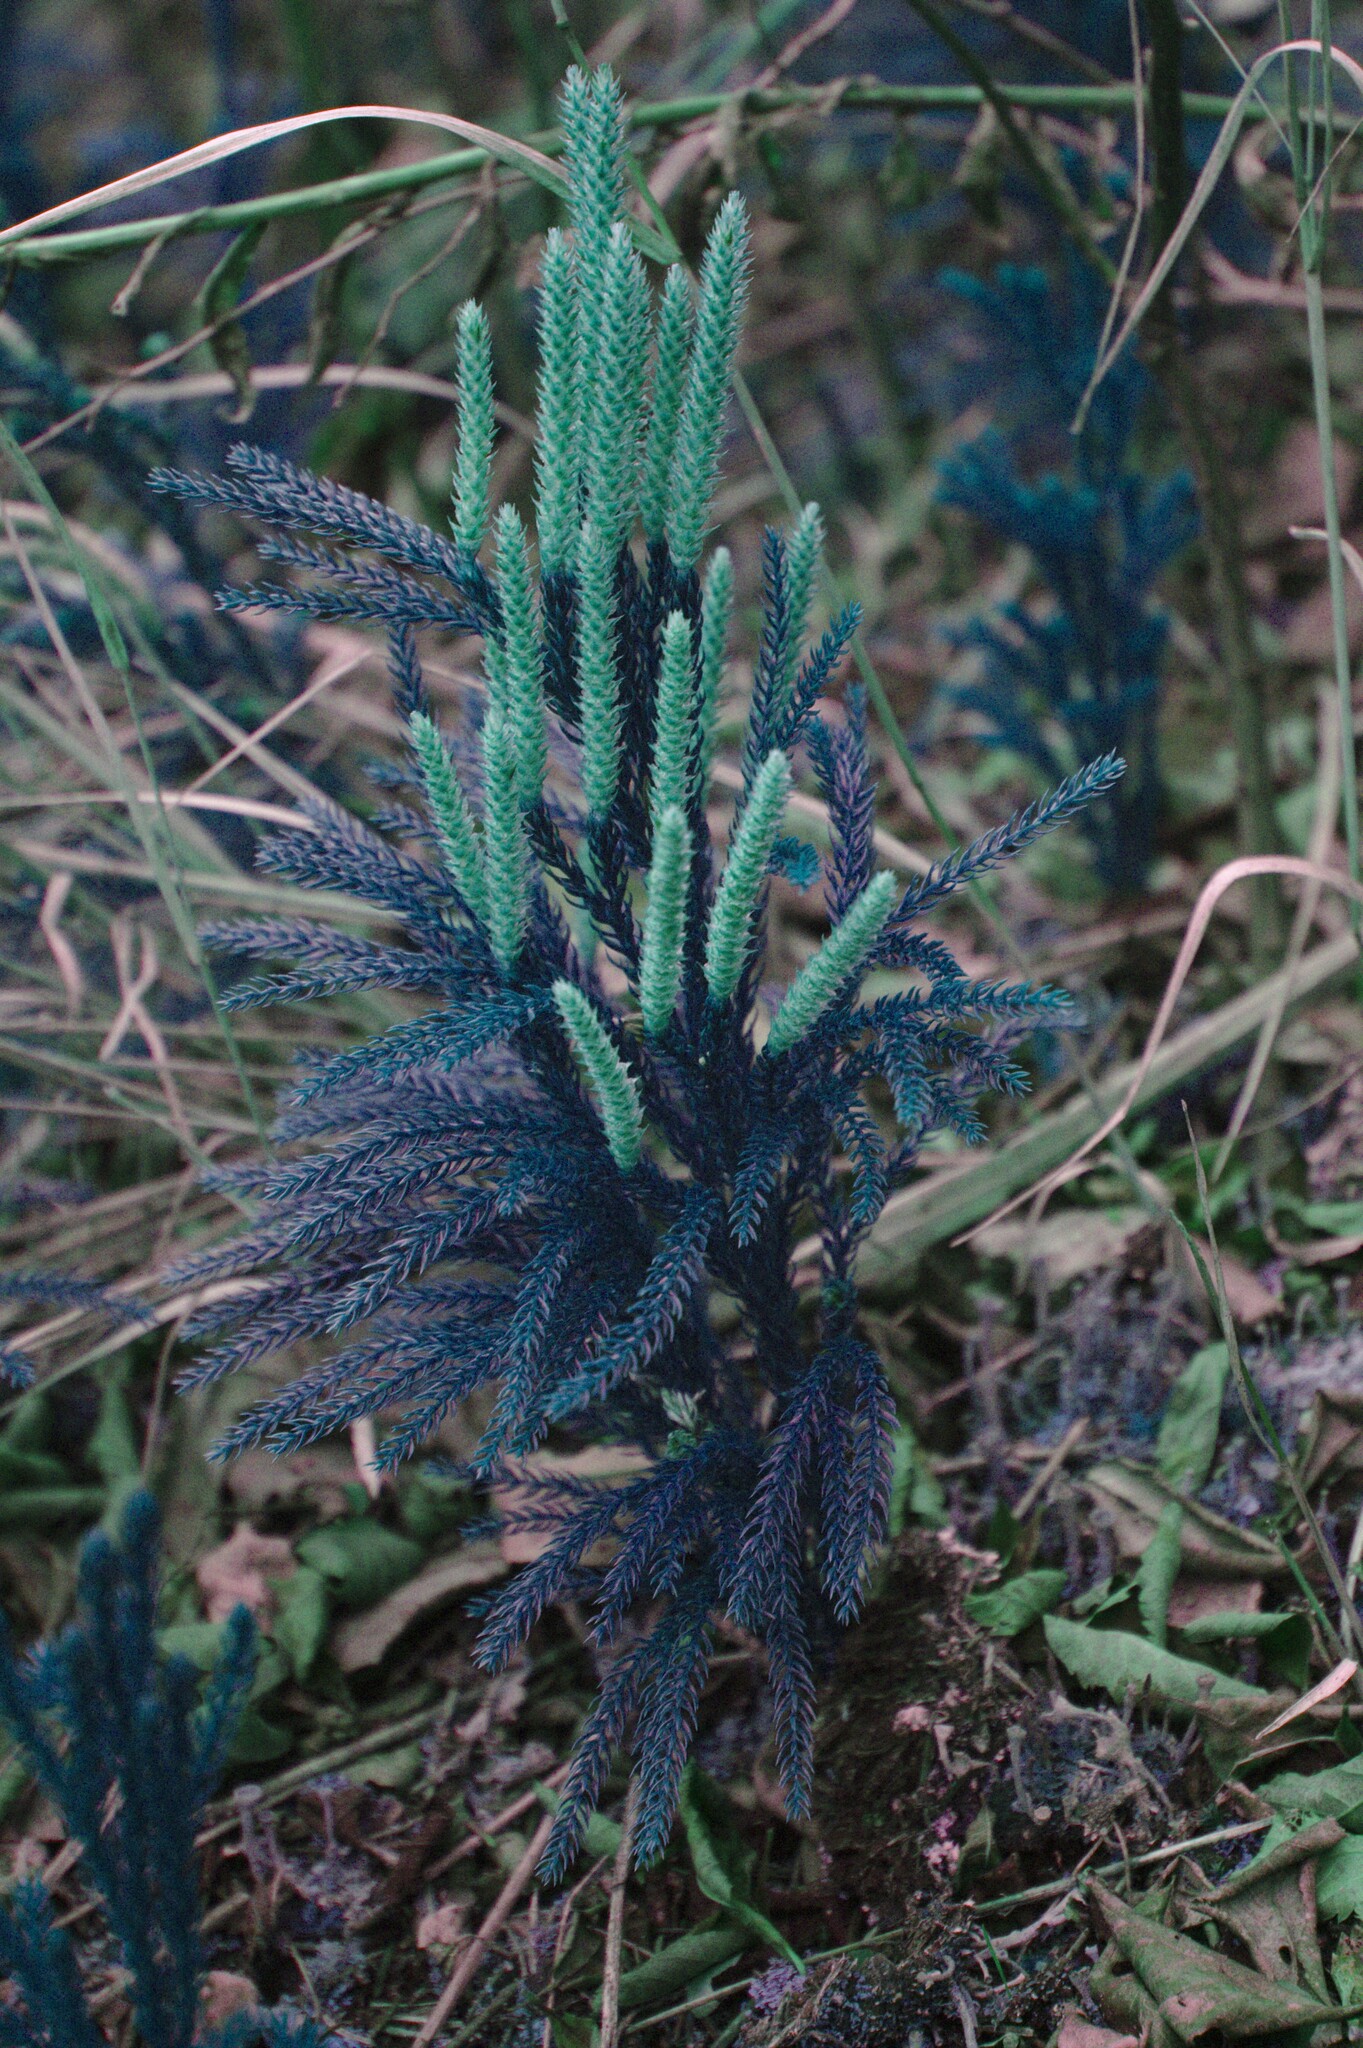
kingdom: Plantae
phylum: Tracheophyta
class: Lycopodiopsida
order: Lycopodiales
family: Lycopodiaceae
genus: Dendrolycopodium
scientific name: Dendrolycopodium dendroideum
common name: Northern tree-clubmoss
